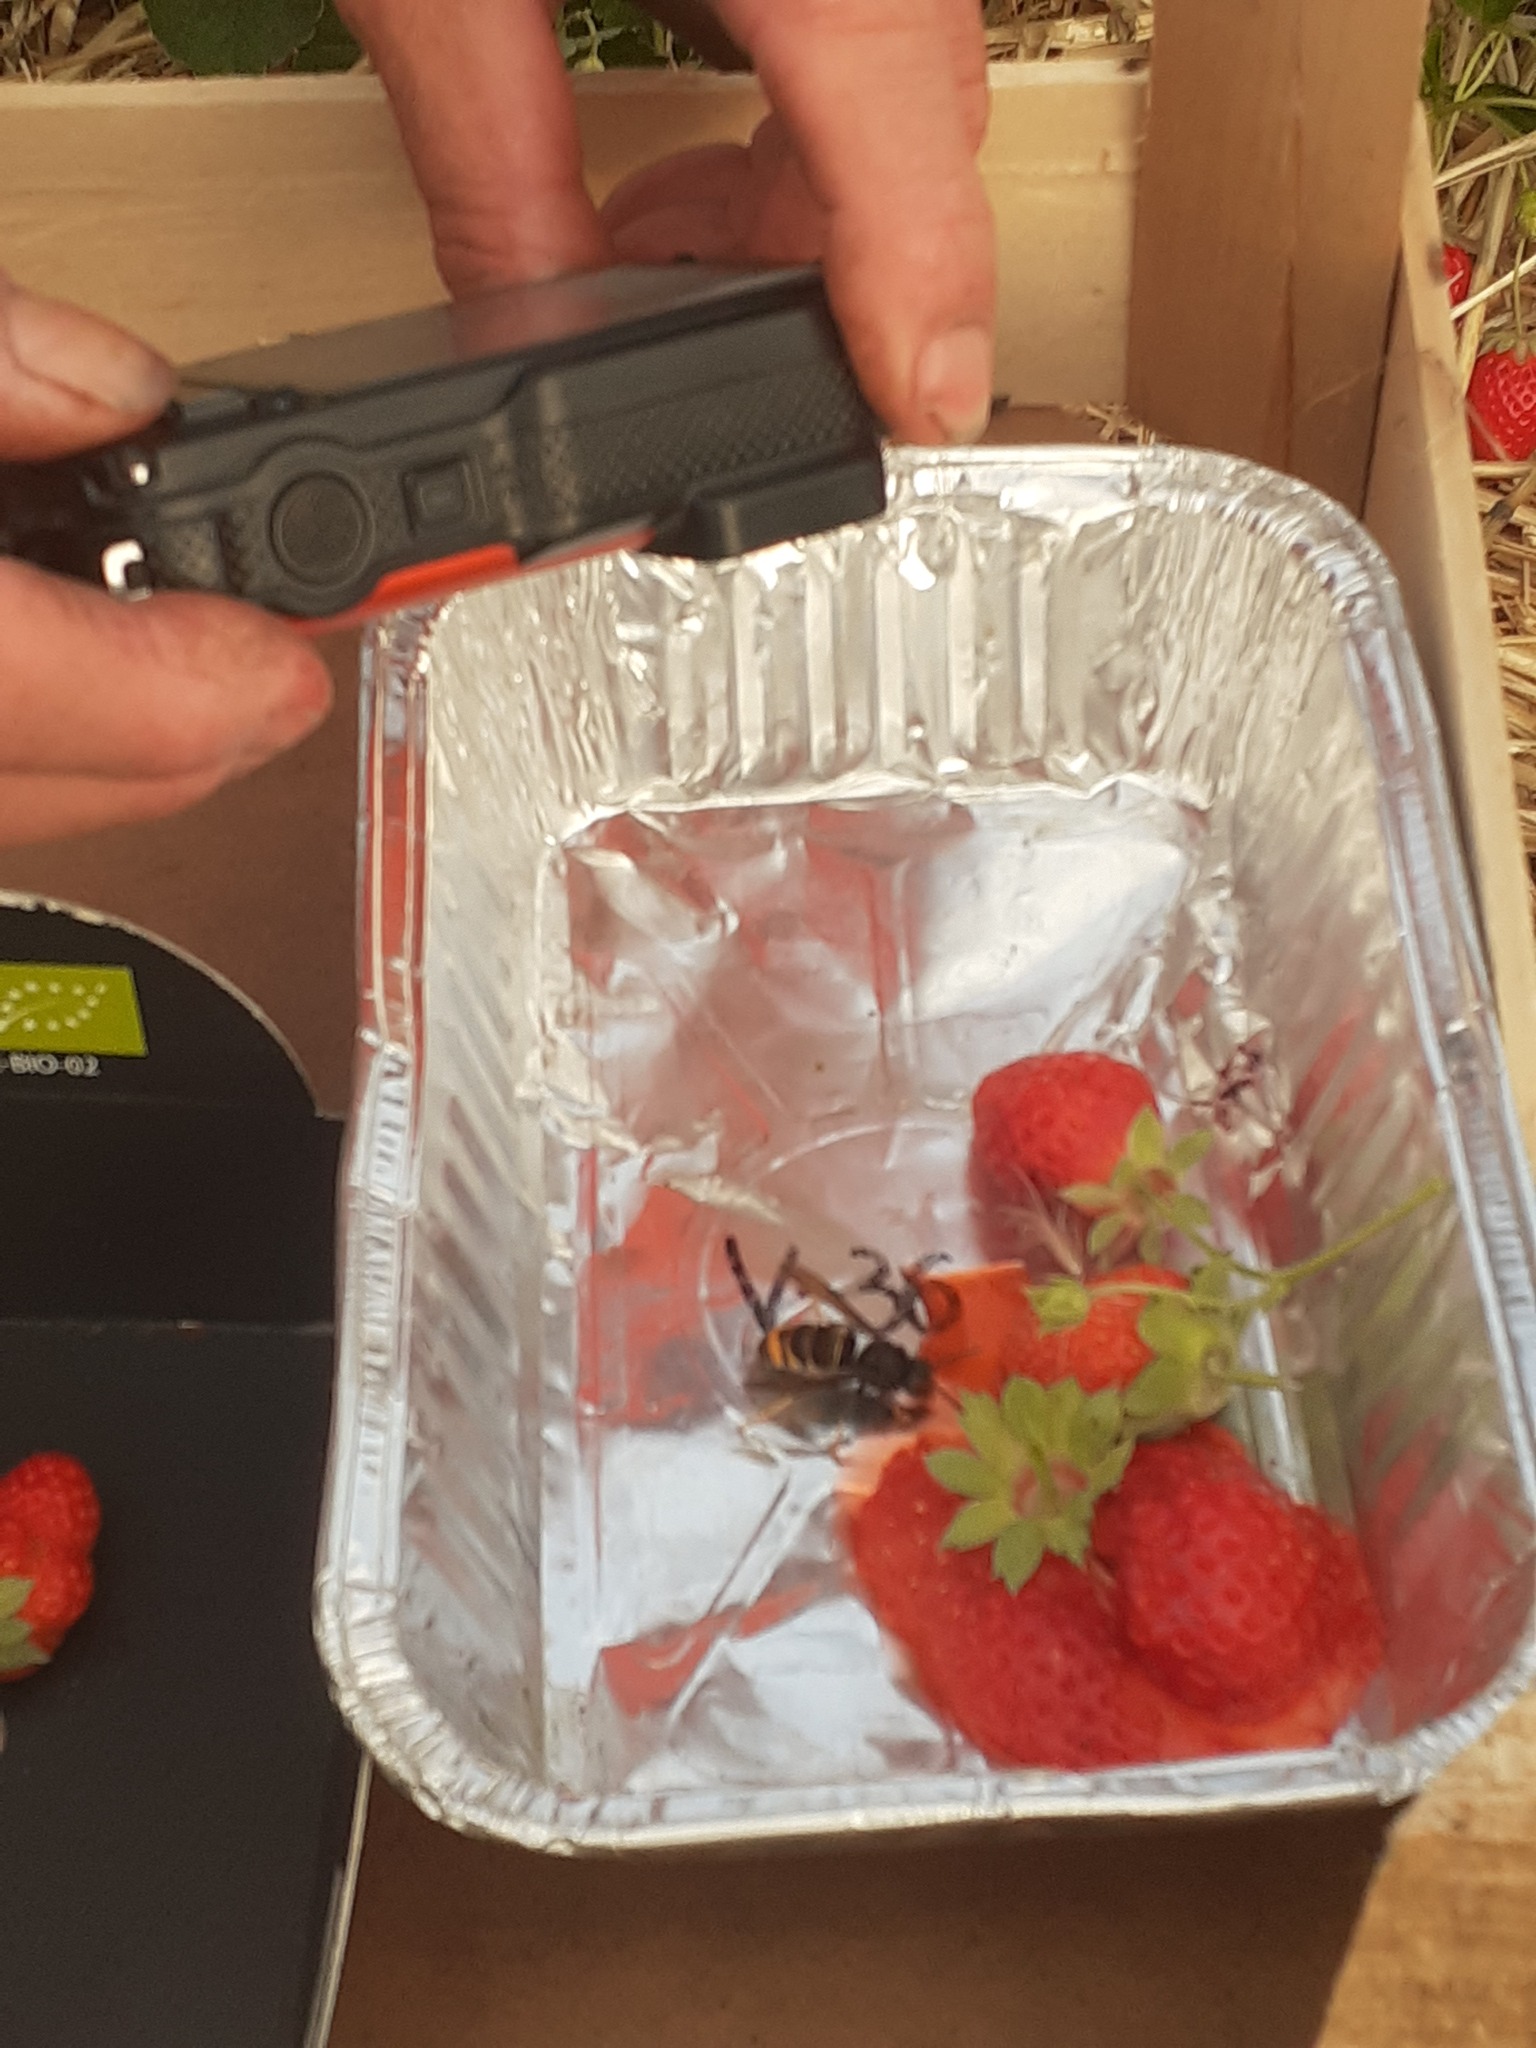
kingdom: Animalia
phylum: Arthropoda
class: Insecta
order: Hymenoptera
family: Vespidae
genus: Vespa
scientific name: Vespa velutina
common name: Asian hornet
